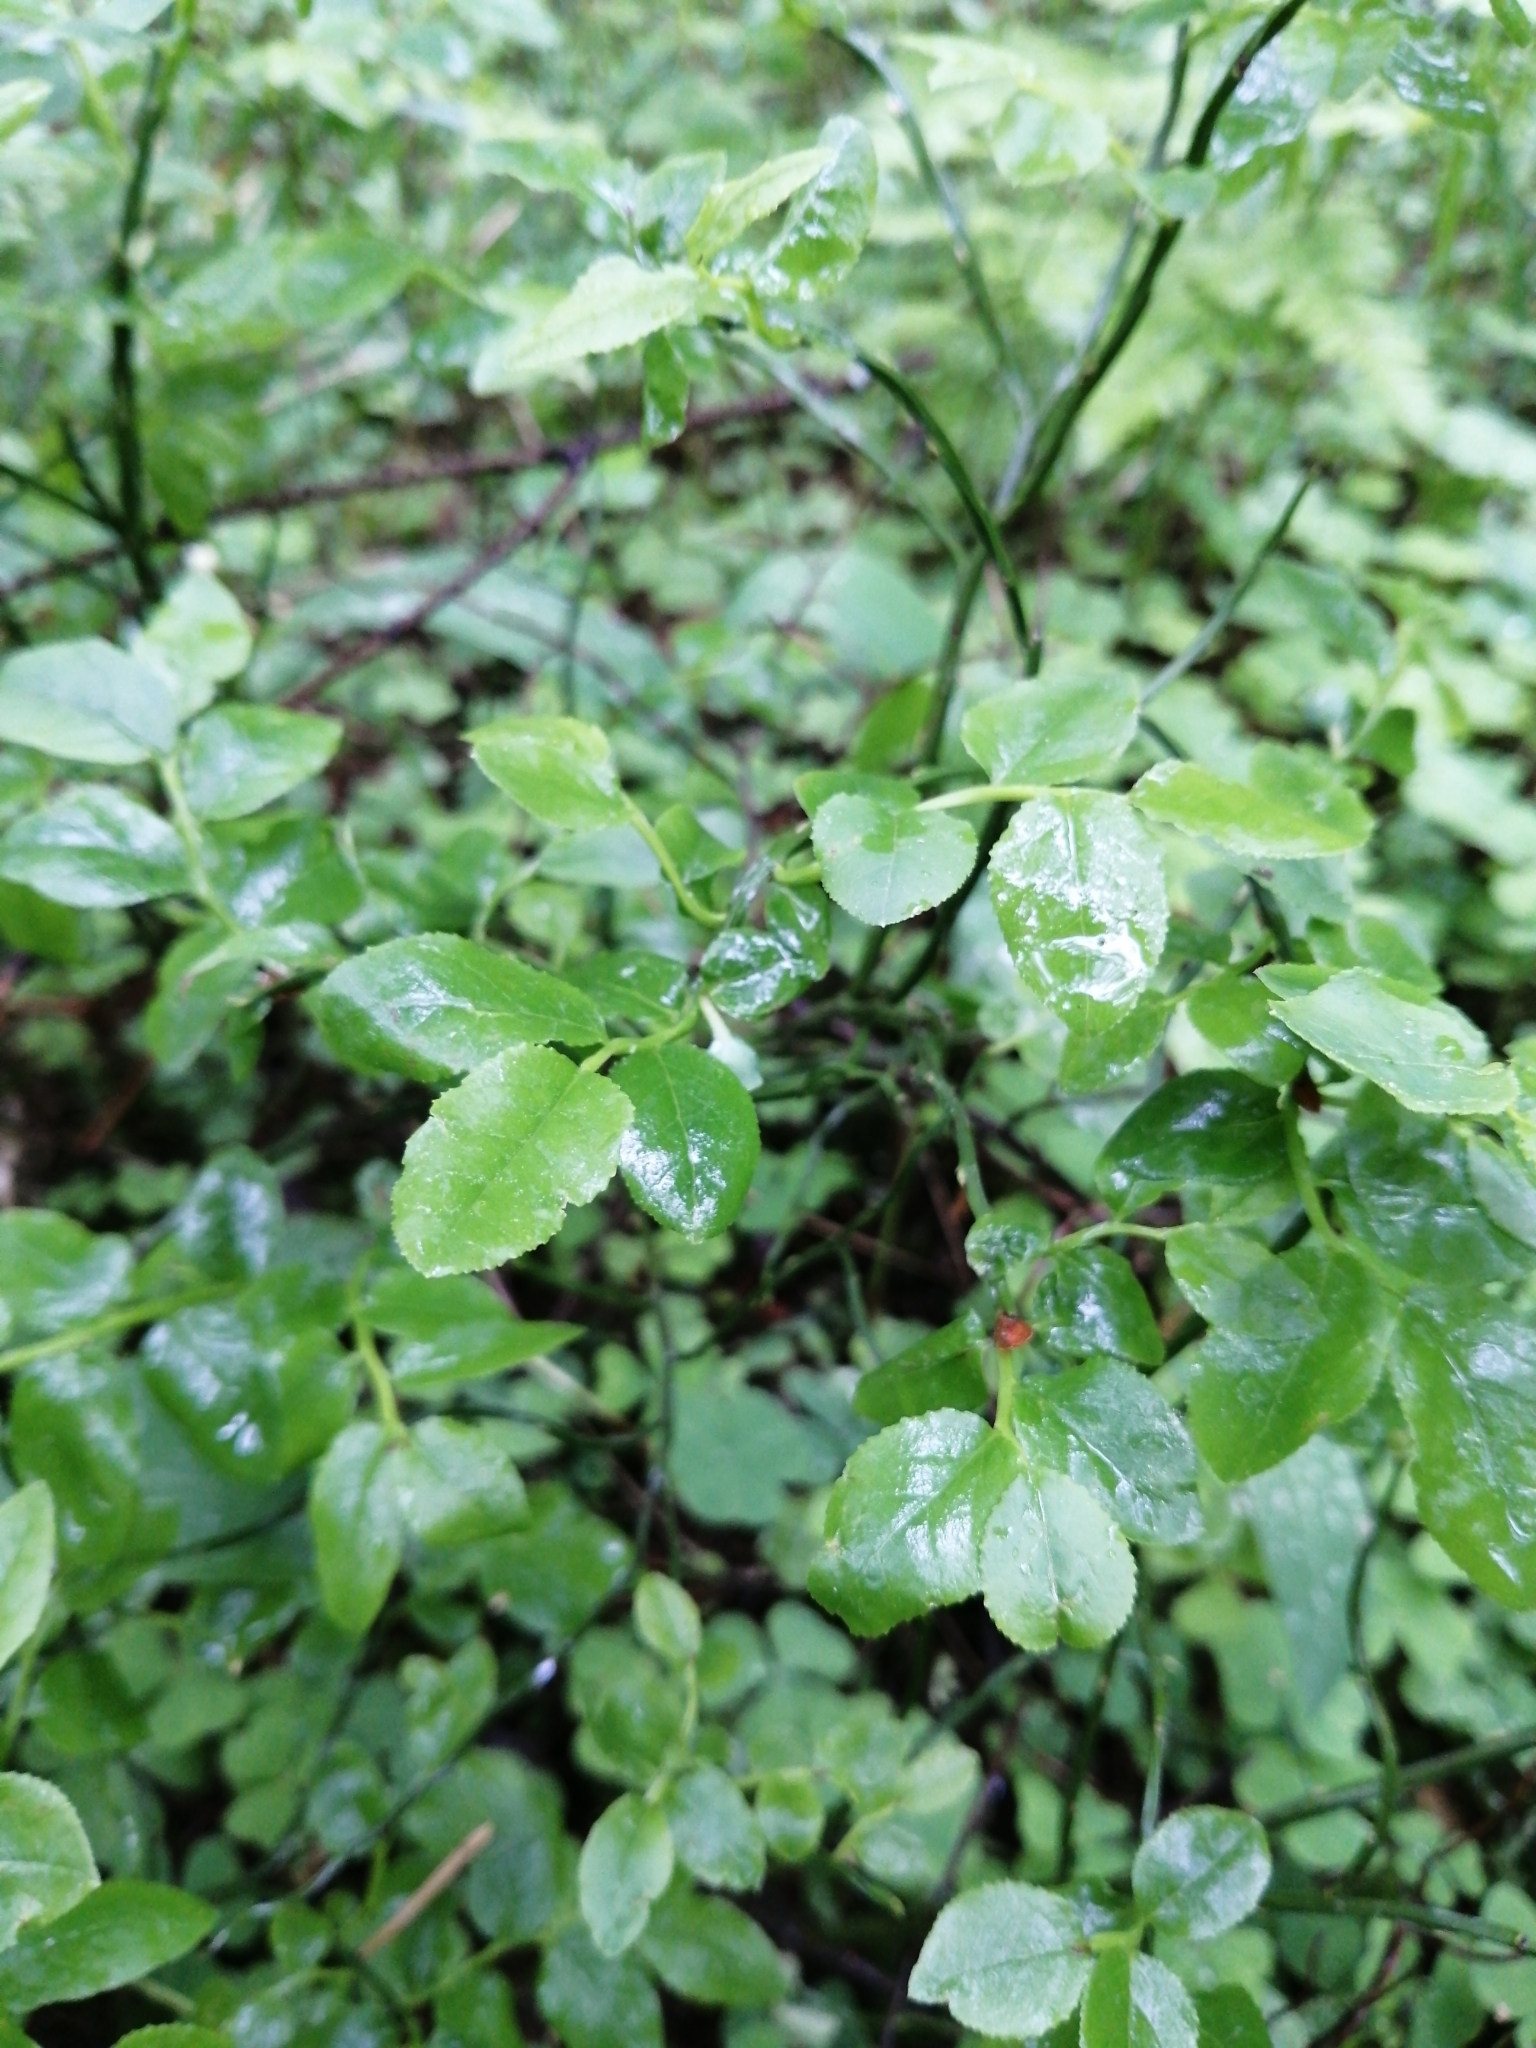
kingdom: Plantae
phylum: Tracheophyta
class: Magnoliopsida
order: Ericales
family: Ericaceae
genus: Vaccinium
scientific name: Vaccinium myrtillus
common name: Bilberry
